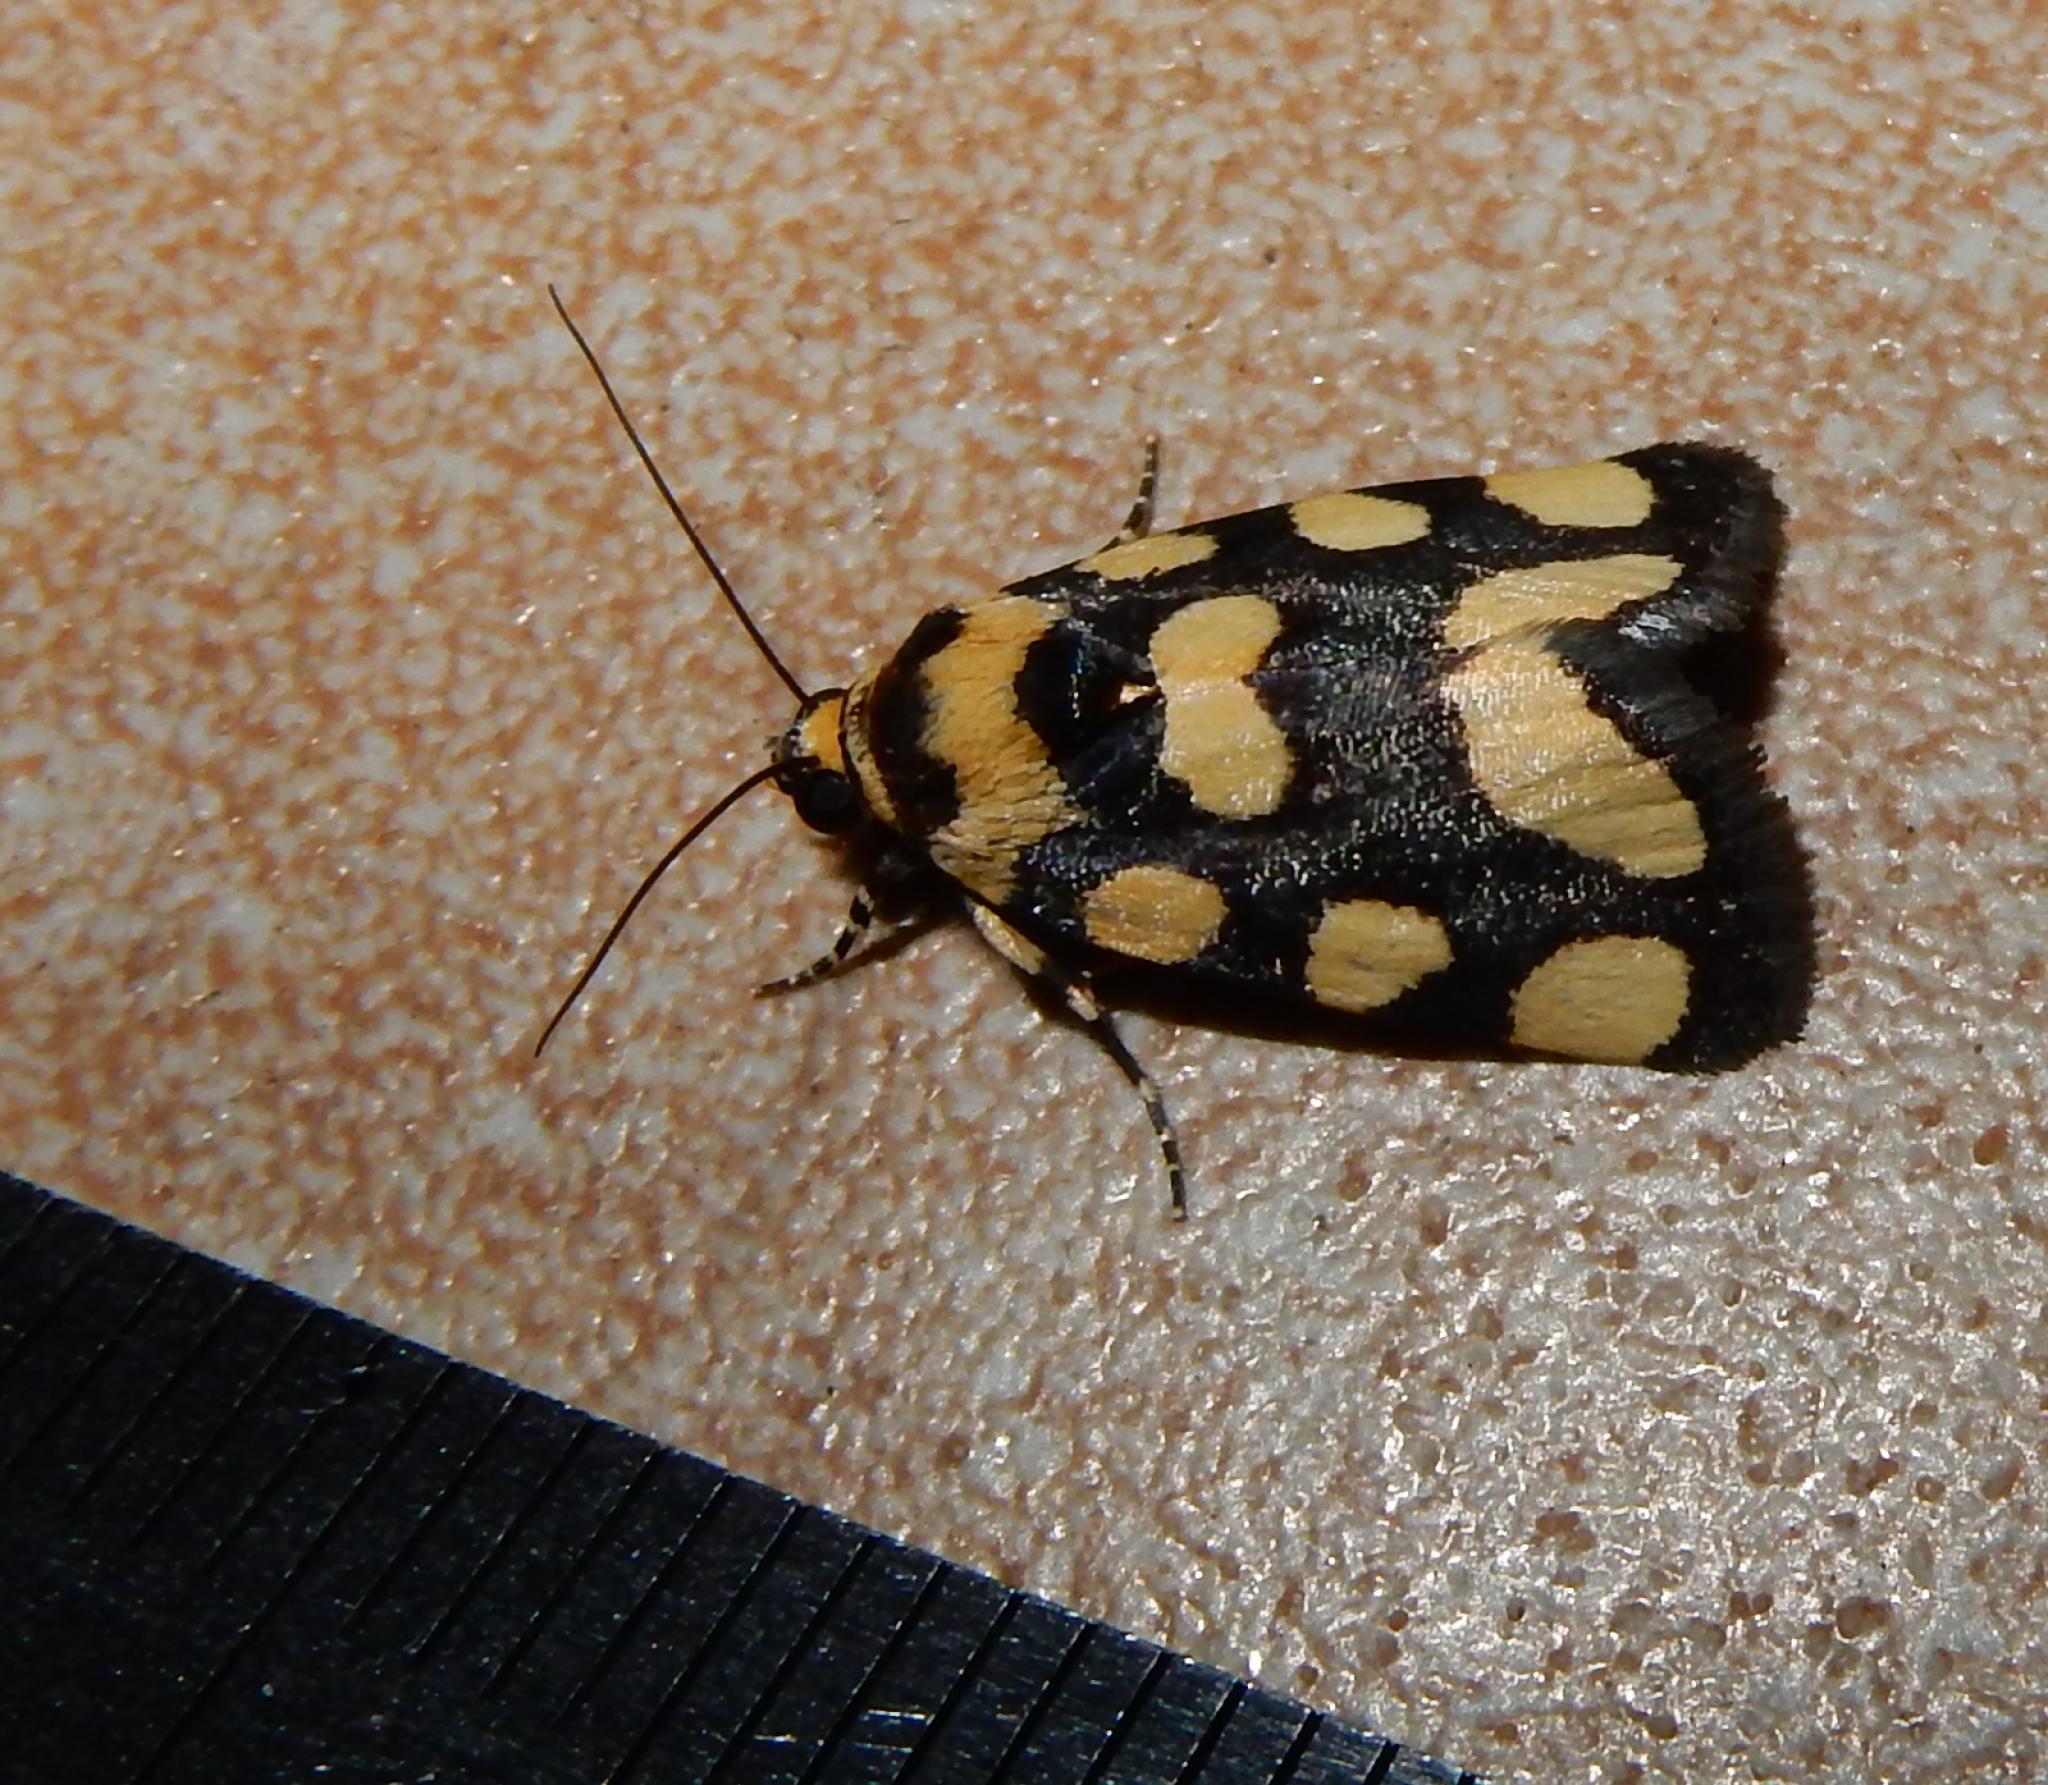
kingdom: Animalia
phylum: Arthropoda
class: Insecta
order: Lepidoptera
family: Noctuidae
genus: Acontia
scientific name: Acontia guttifera
